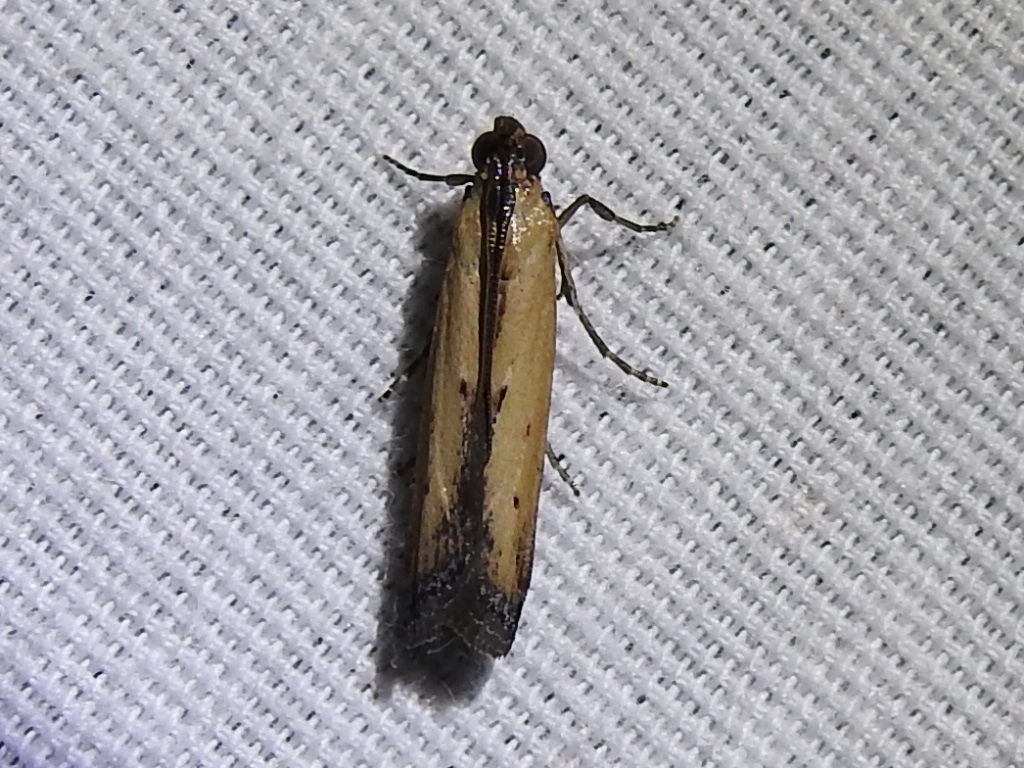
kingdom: Animalia
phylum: Arthropoda
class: Insecta
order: Lepidoptera
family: Pyralidae
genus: Elasmopalpus
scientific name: Elasmopalpus lignosella
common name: Lesser cornstalk borer
